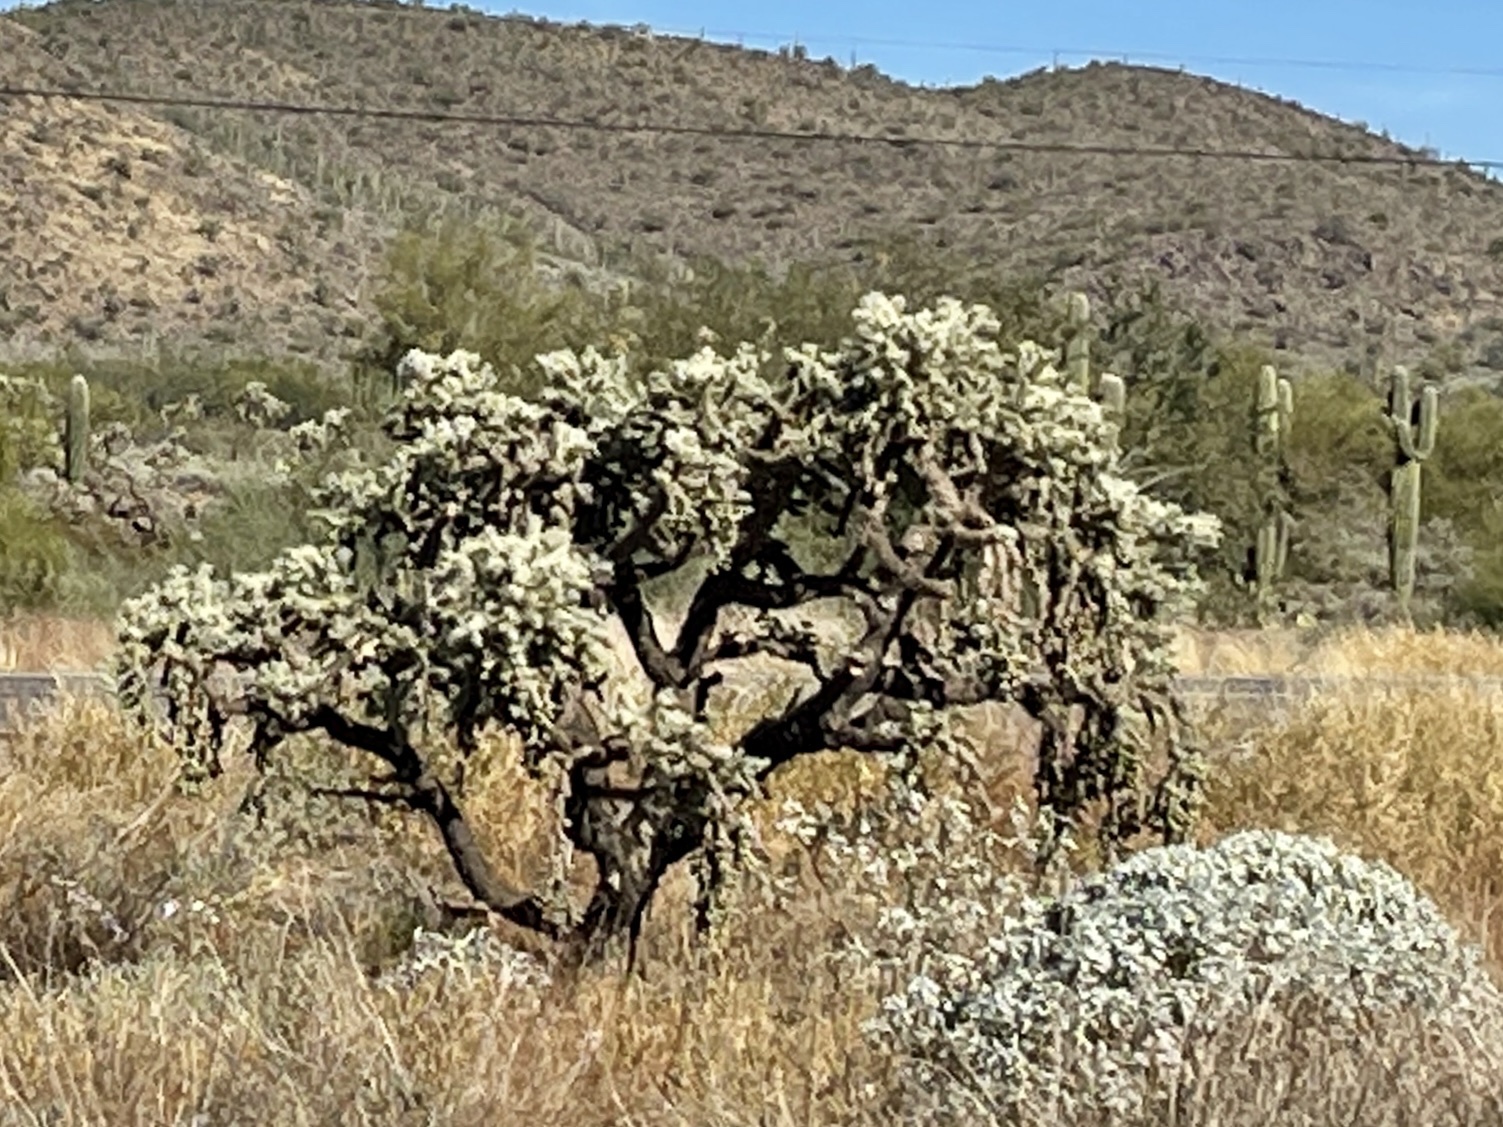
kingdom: Plantae
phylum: Tracheophyta
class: Magnoliopsida
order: Caryophyllales
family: Cactaceae
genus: Cylindropuntia
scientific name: Cylindropuntia fulgida
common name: Jumping cholla
